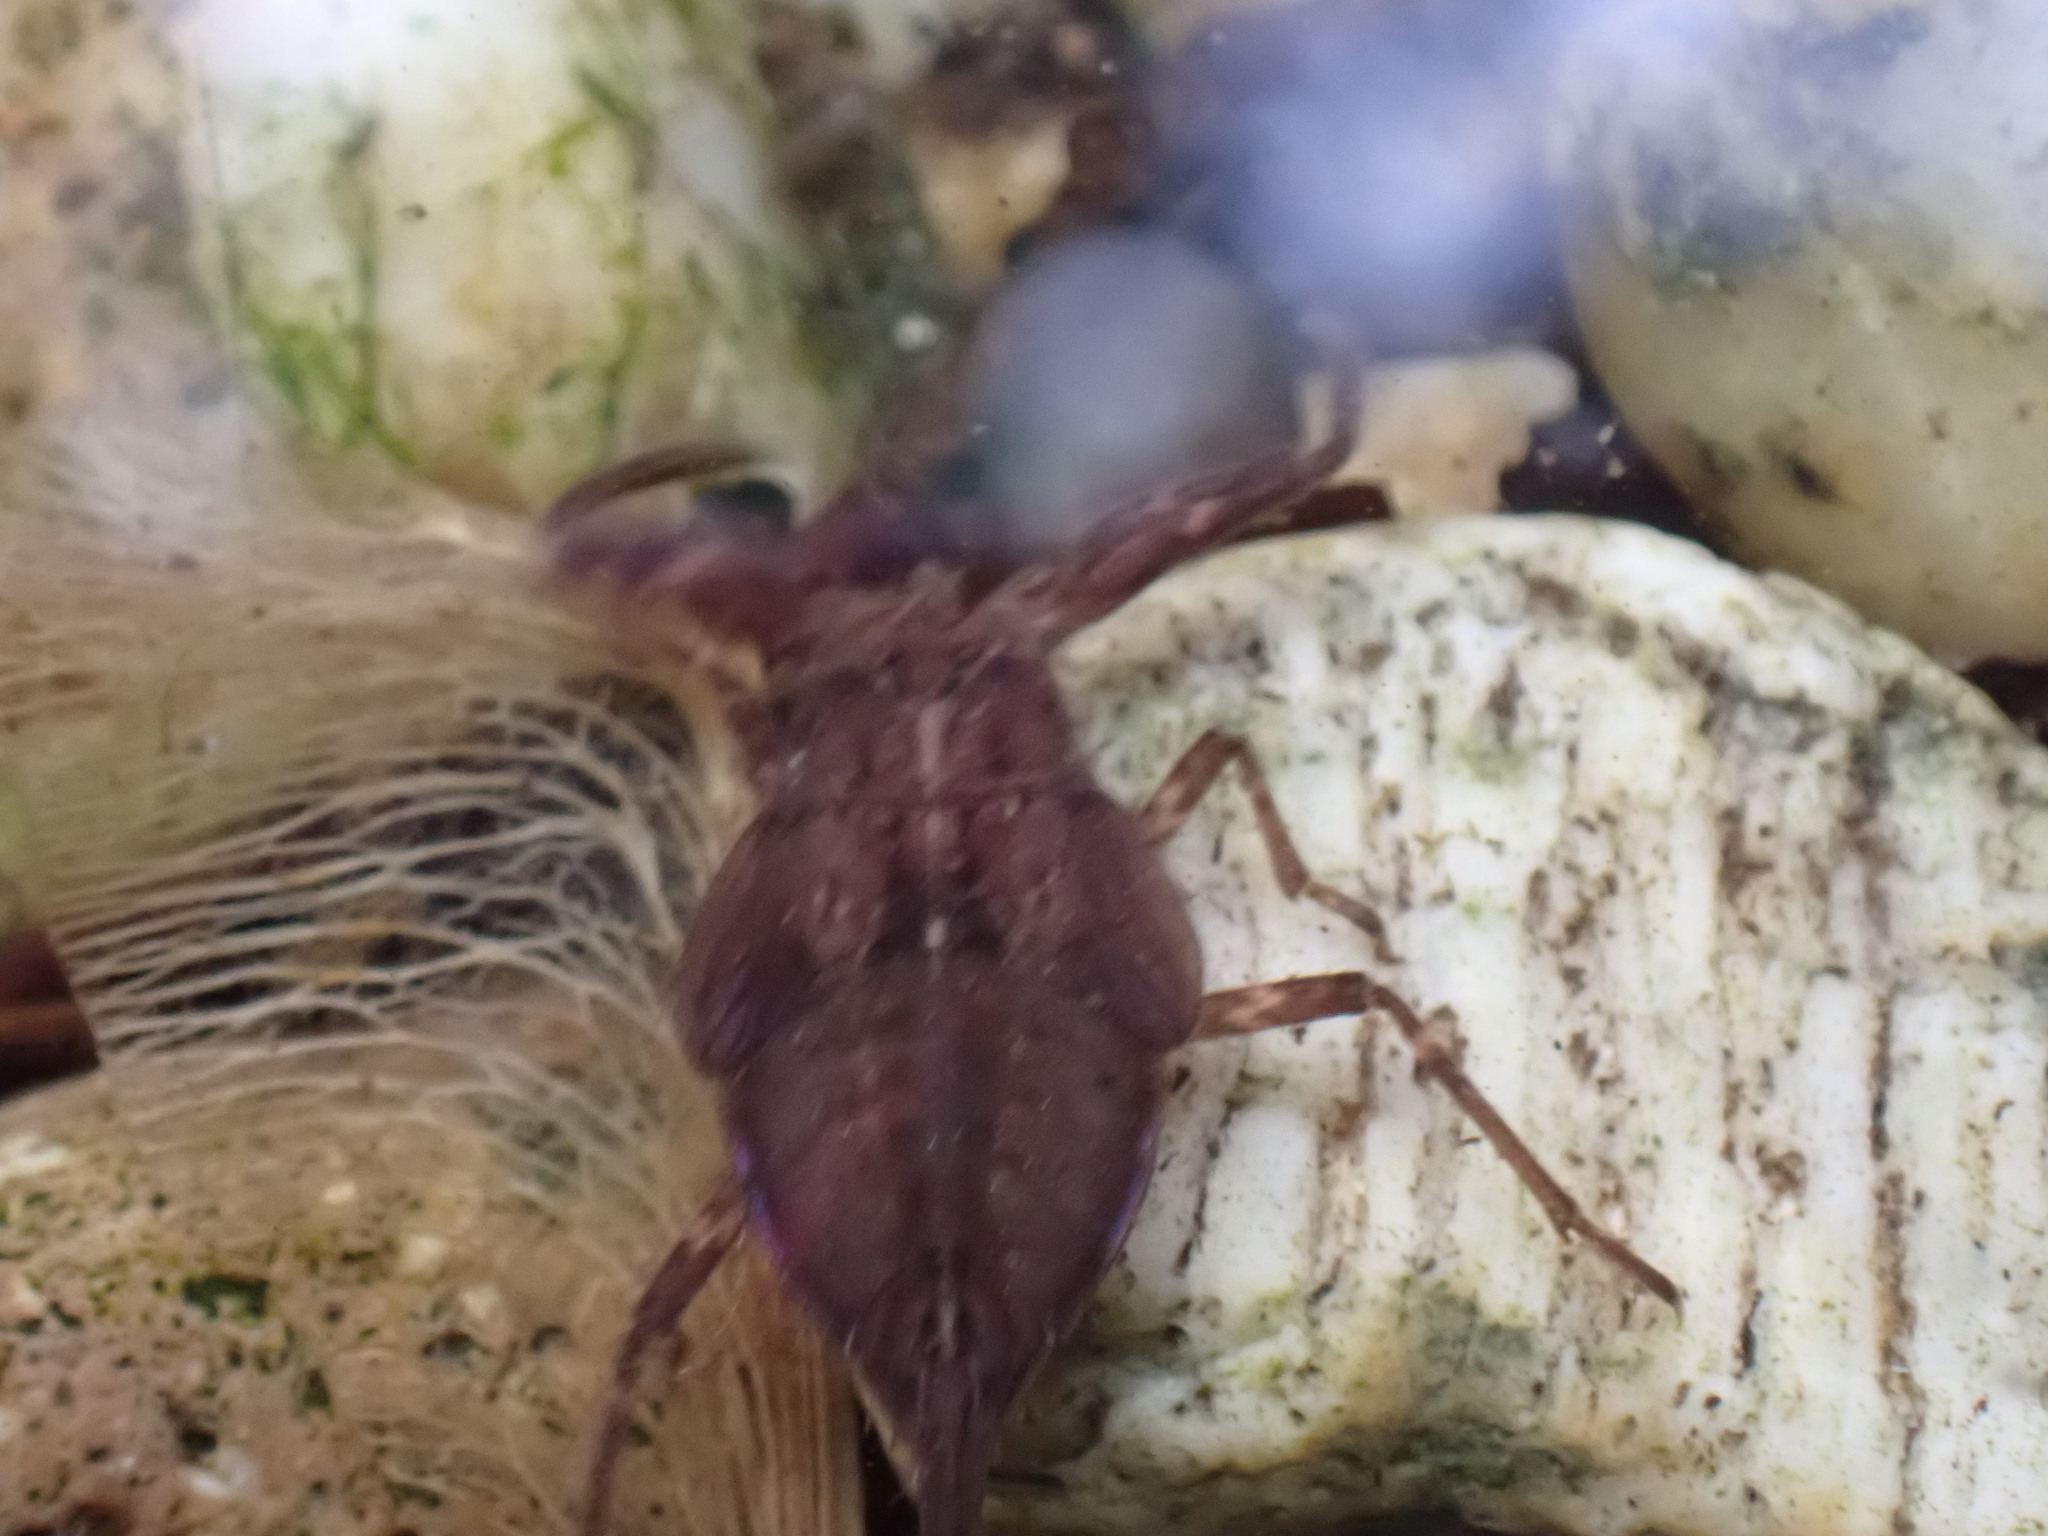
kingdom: Animalia
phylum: Arthropoda
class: Insecta
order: Hemiptera
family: Nepidae
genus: Nepa
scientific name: Nepa cinerea
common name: Water scorpion
